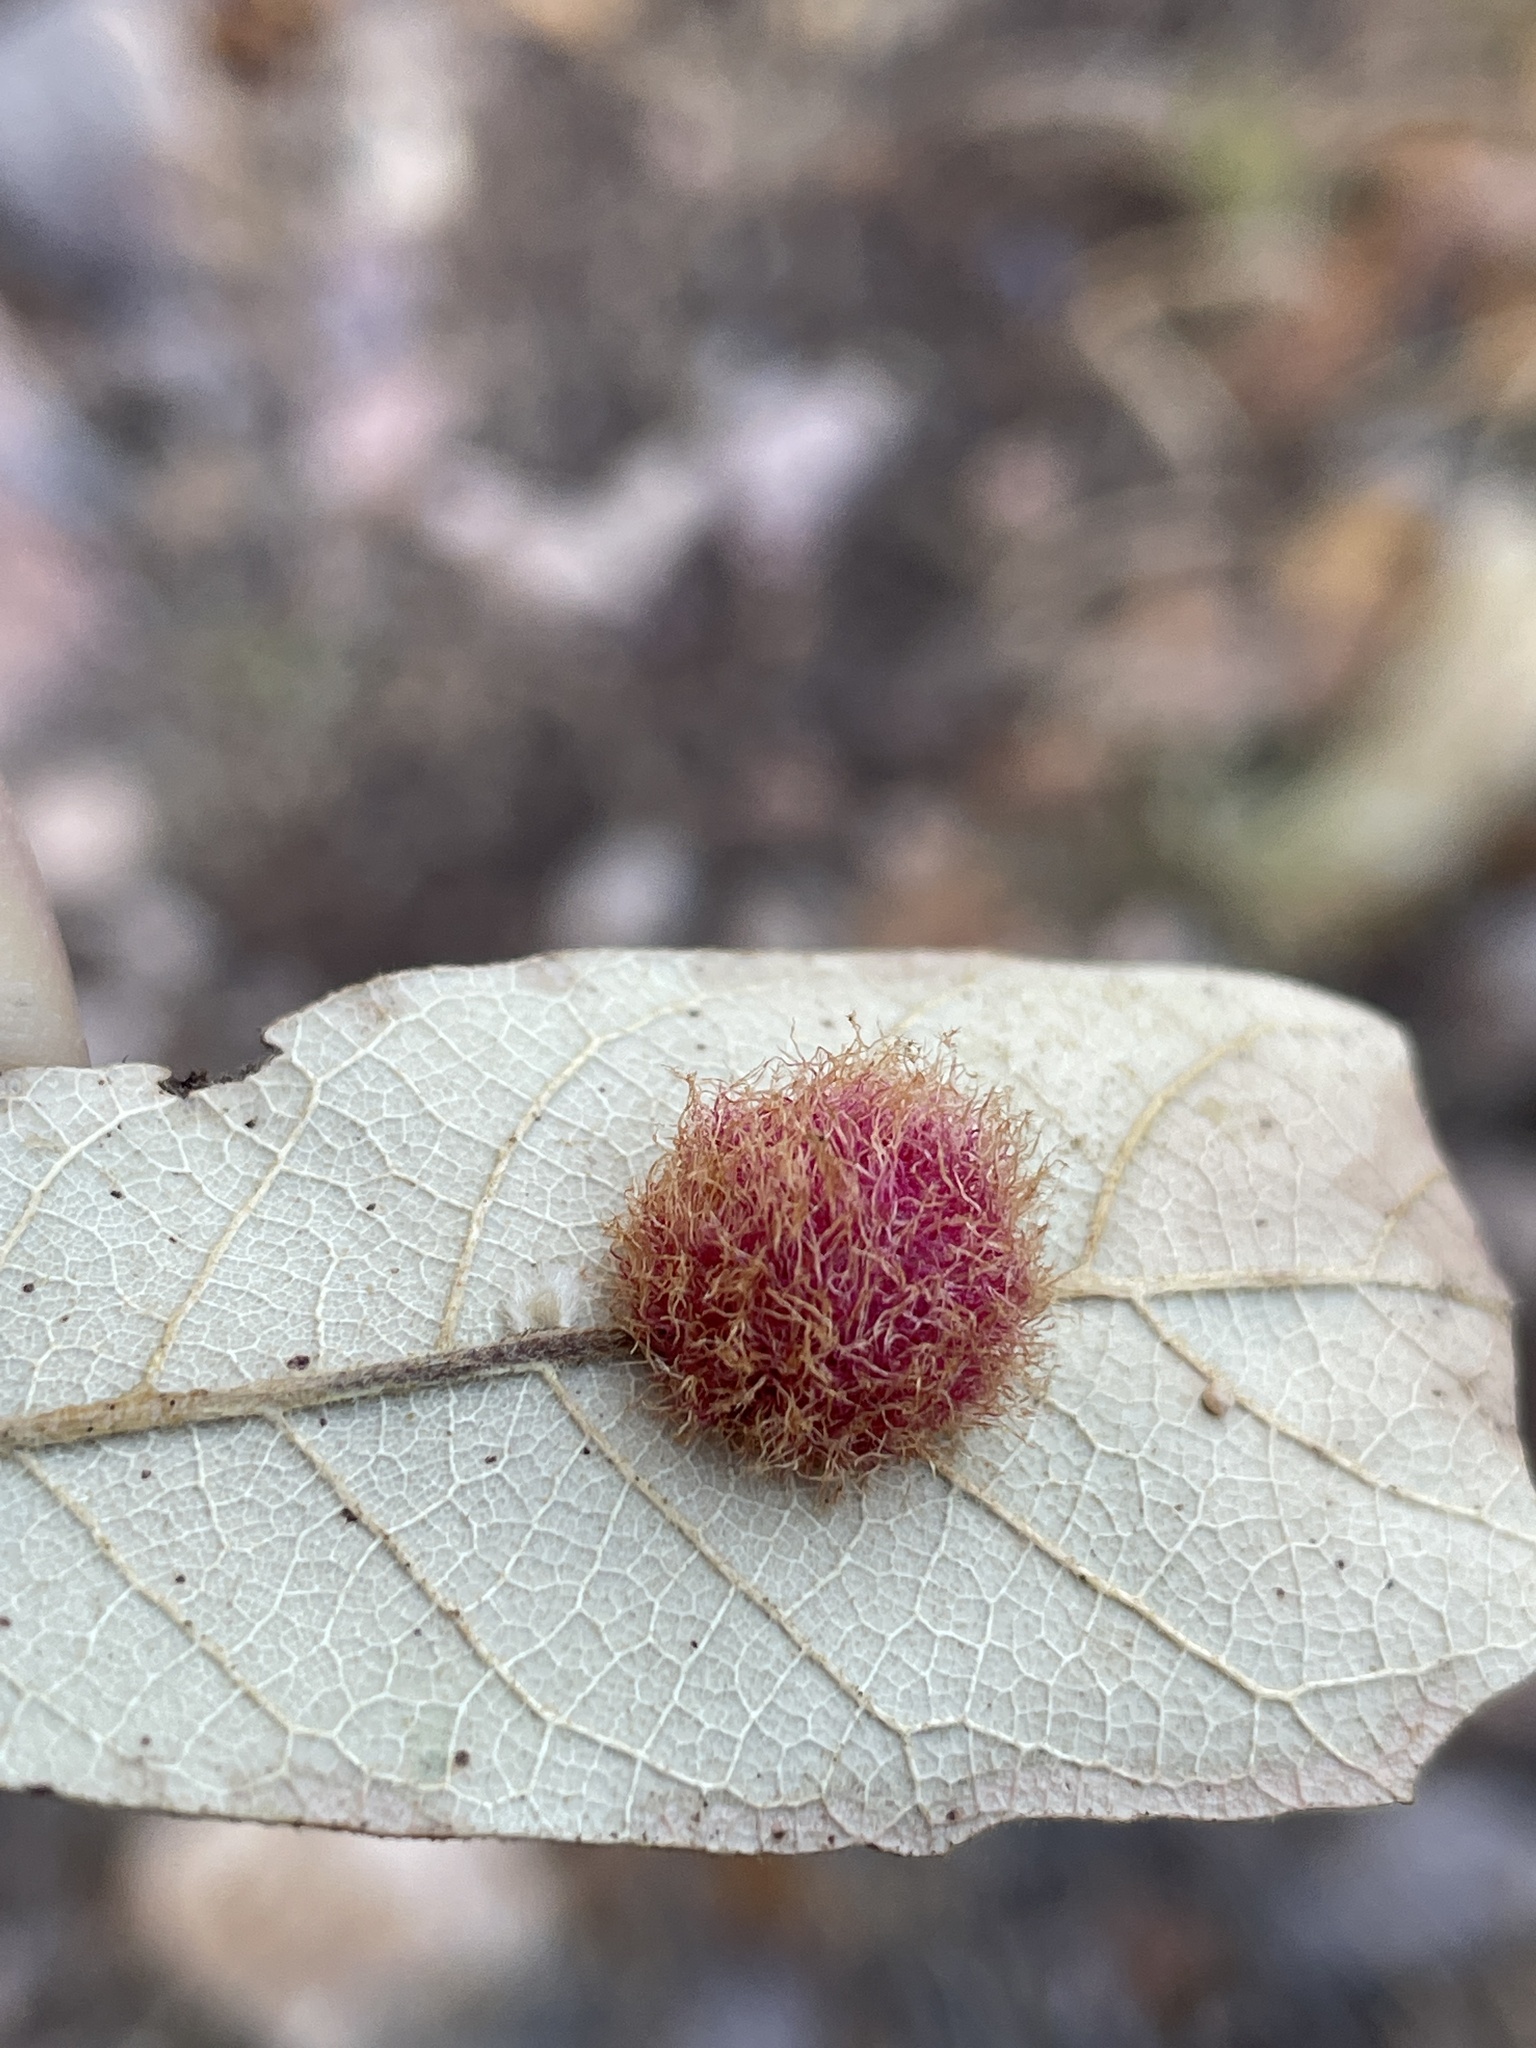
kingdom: Animalia
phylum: Arthropoda
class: Insecta
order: Hymenoptera
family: Cynipidae
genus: Cynips
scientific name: Cynips
